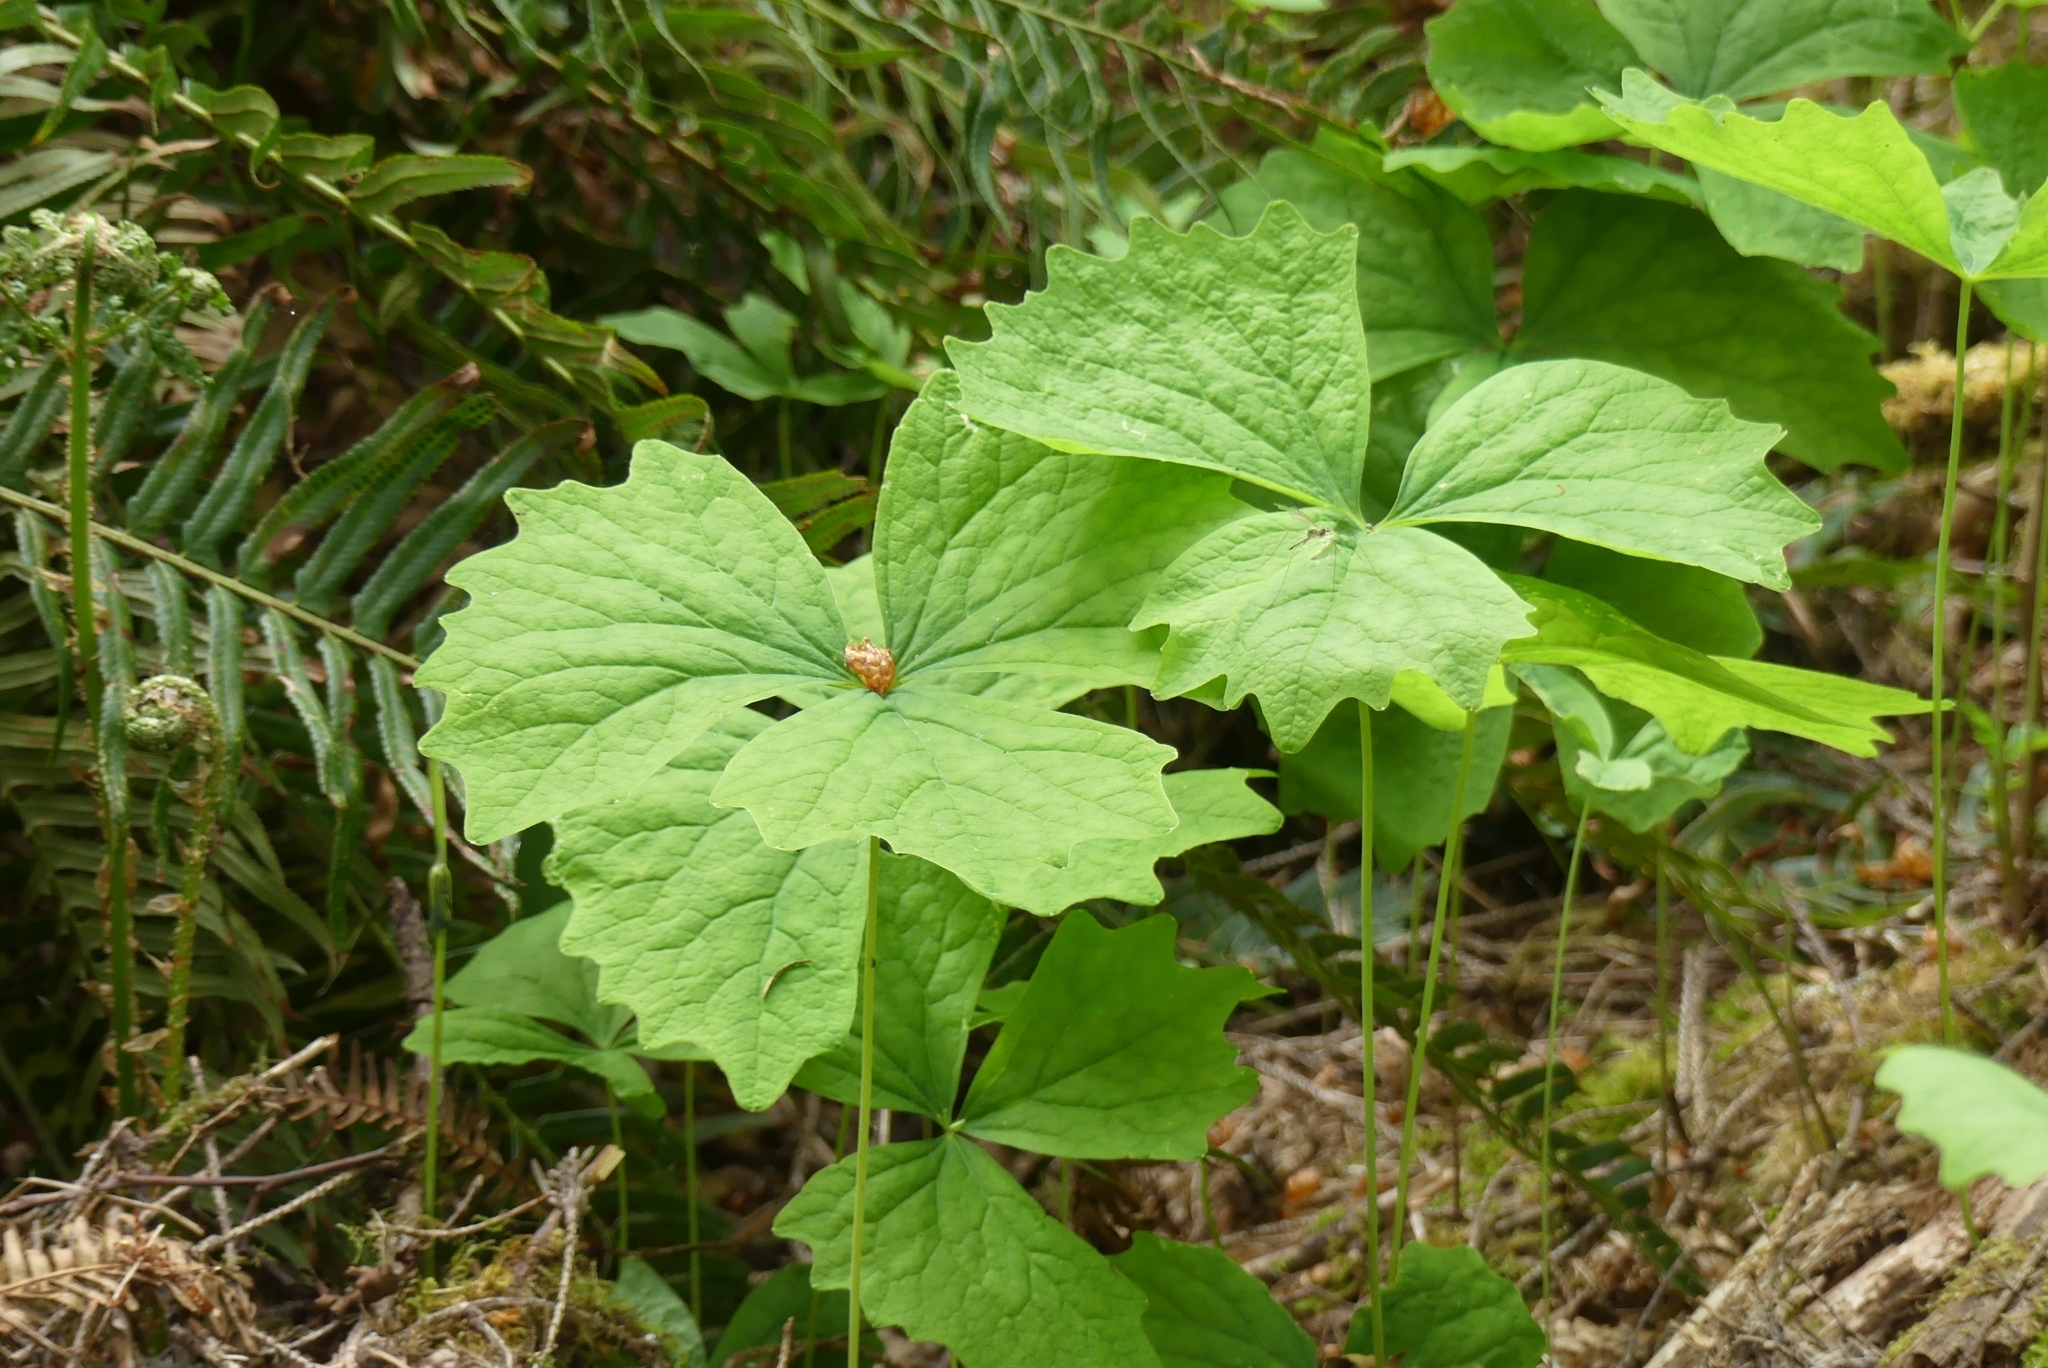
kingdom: Plantae
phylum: Tracheophyta
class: Magnoliopsida
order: Ranunculales
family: Berberidaceae
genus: Achlys
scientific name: Achlys triphylla
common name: Vanilla-leaf
